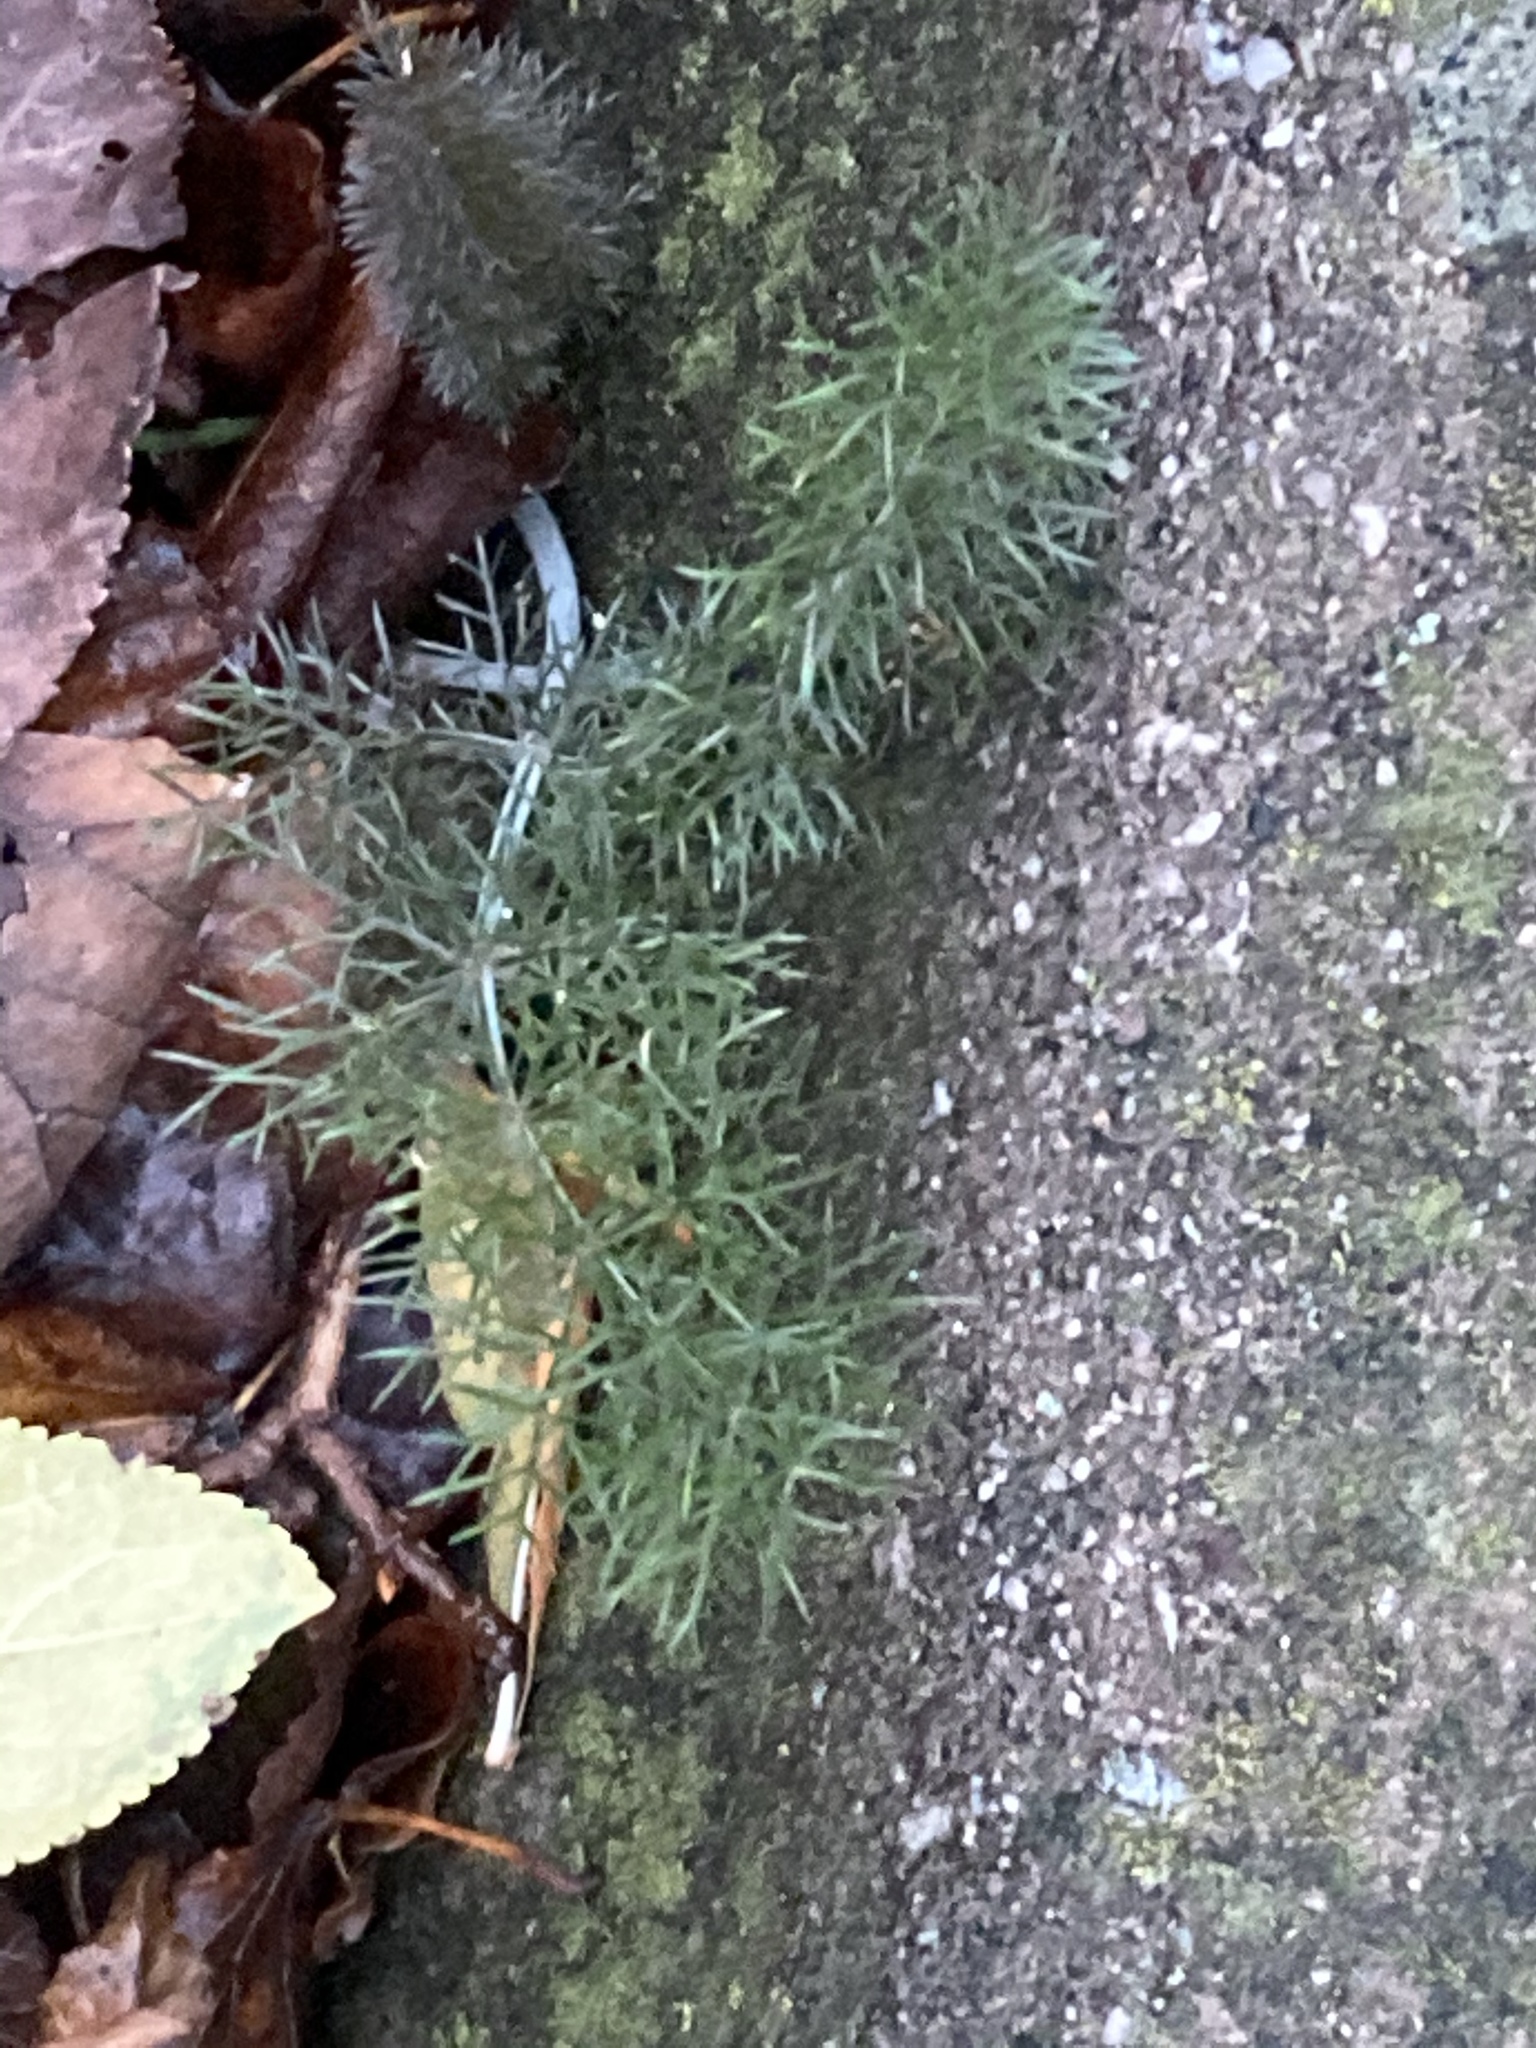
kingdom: Plantae
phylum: Tracheophyta
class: Magnoliopsida
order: Apiales
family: Apiaceae
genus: Foeniculum
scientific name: Foeniculum vulgare
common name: Fennel
